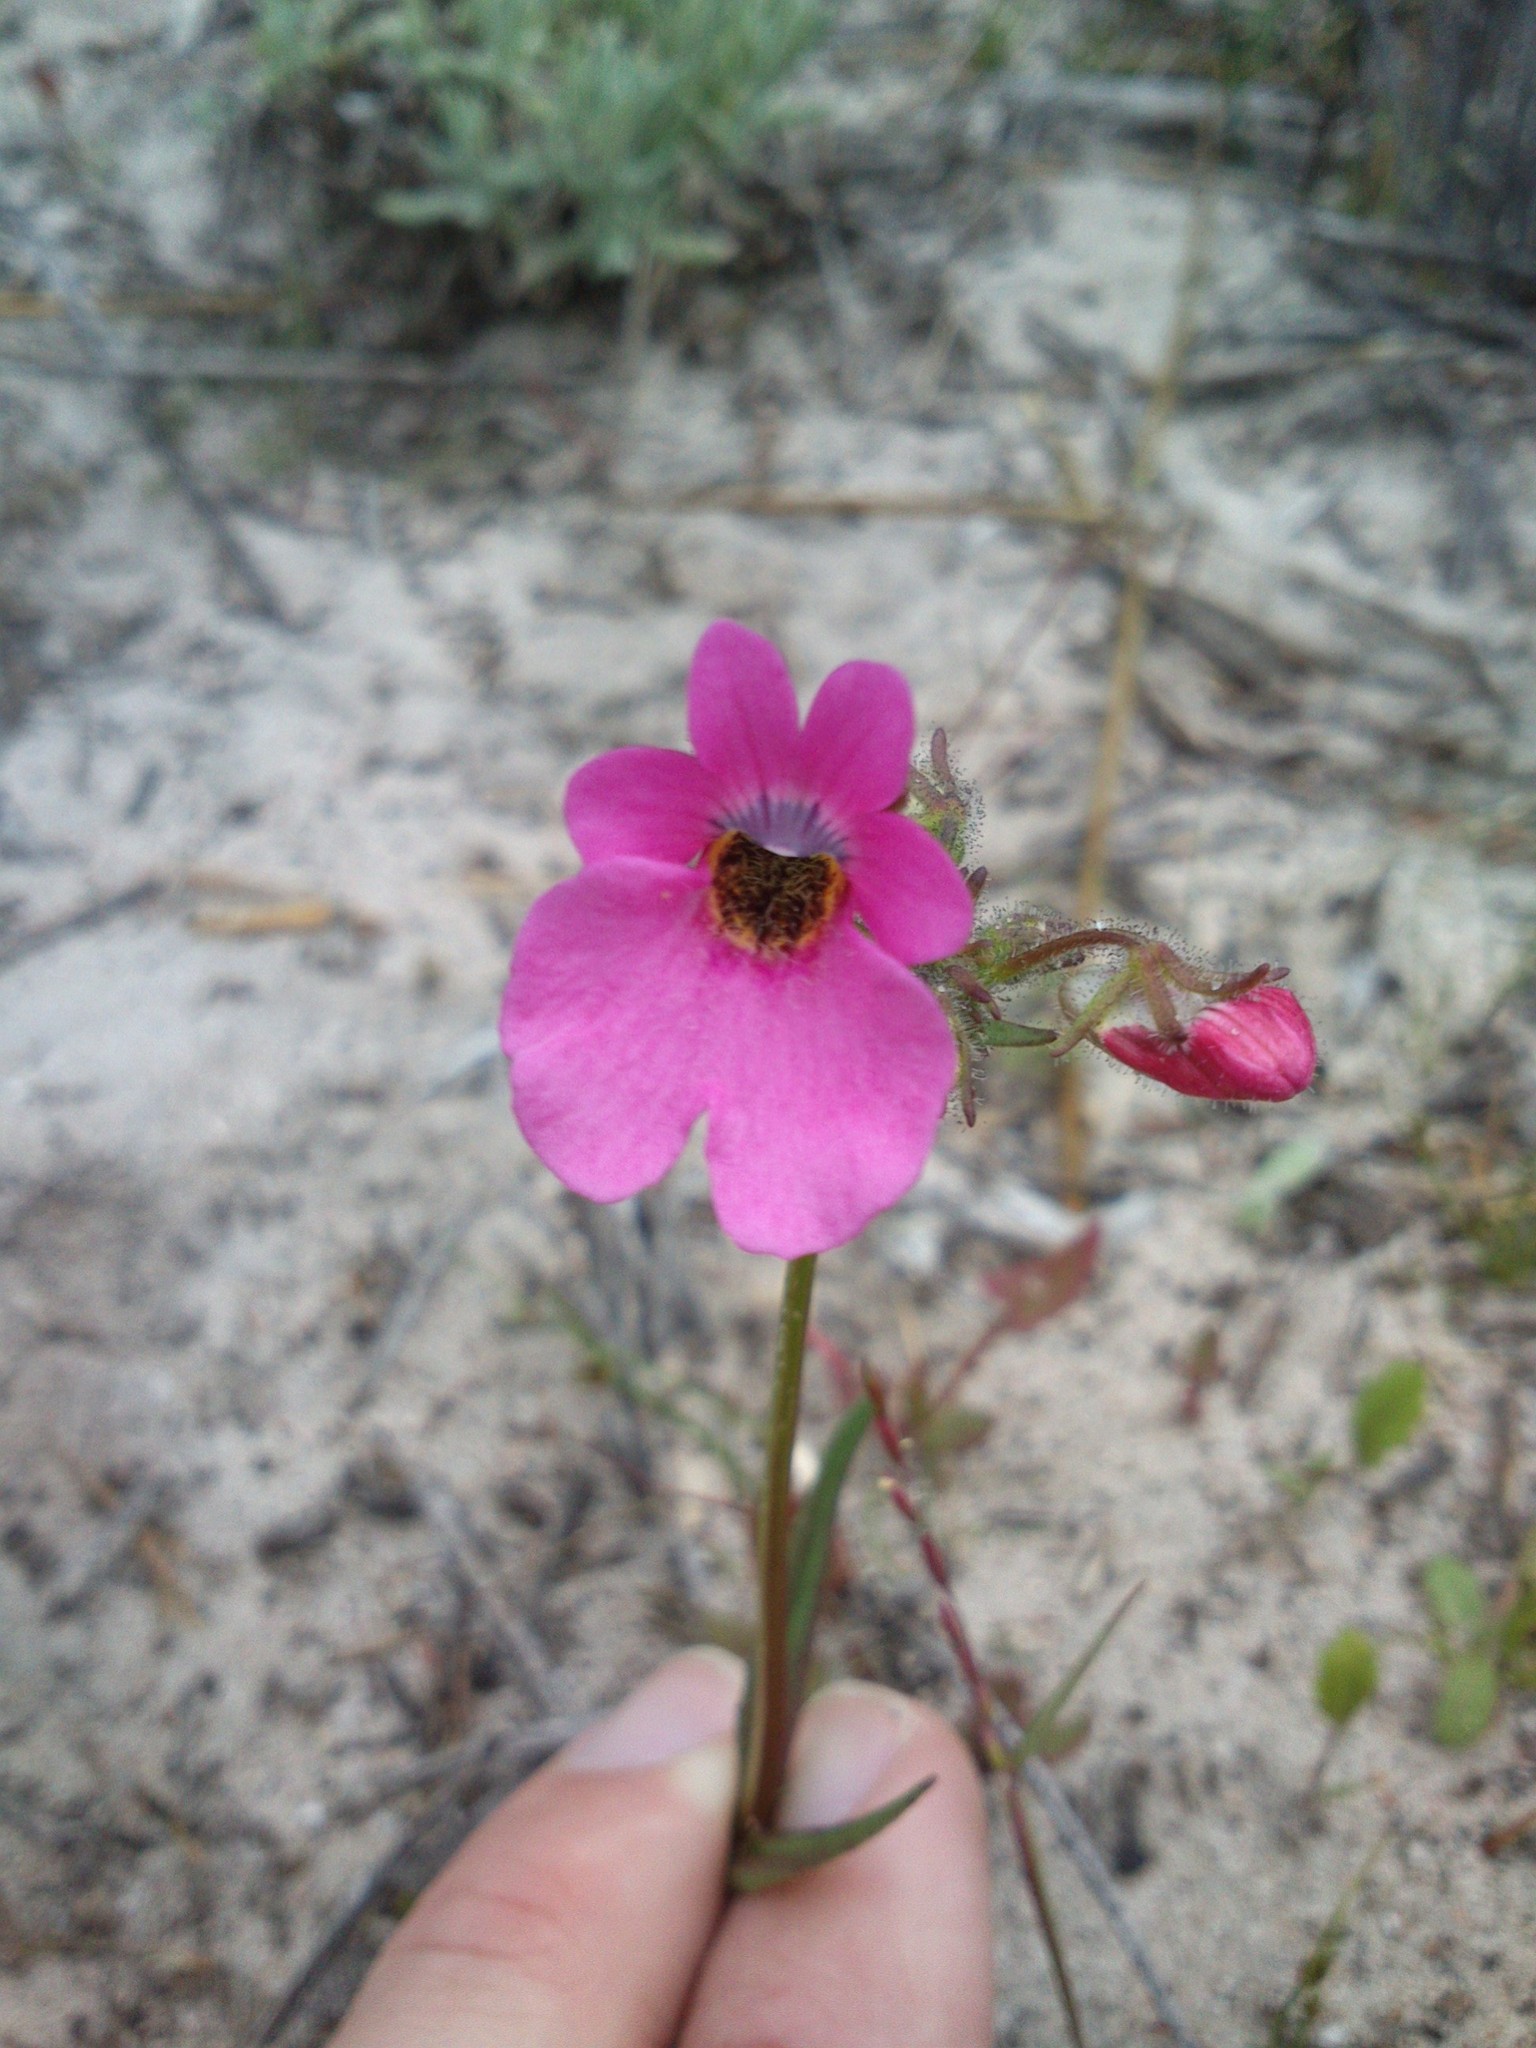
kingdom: Plantae
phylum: Tracheophyta
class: Magnoliopsida
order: Lamiales
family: Scrophulariaceae
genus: Nemesia
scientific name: Nemesia strumosa
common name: Cape-jewels
